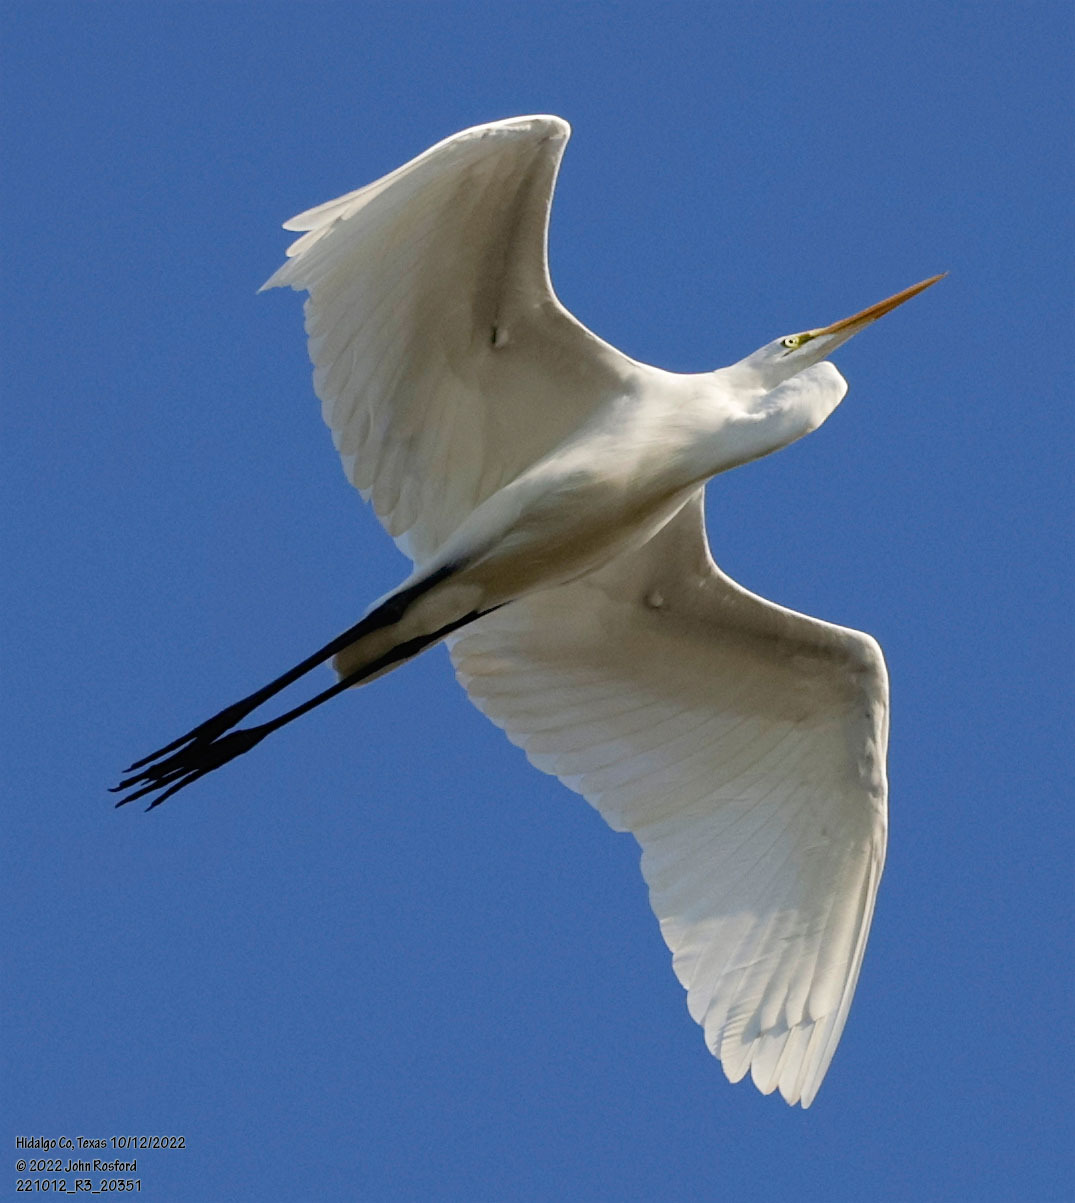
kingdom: Animalia
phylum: Chordata
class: Aves
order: Pelecaniformes
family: Ardeidae
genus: Ardea
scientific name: Ardea alba
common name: Great egret
